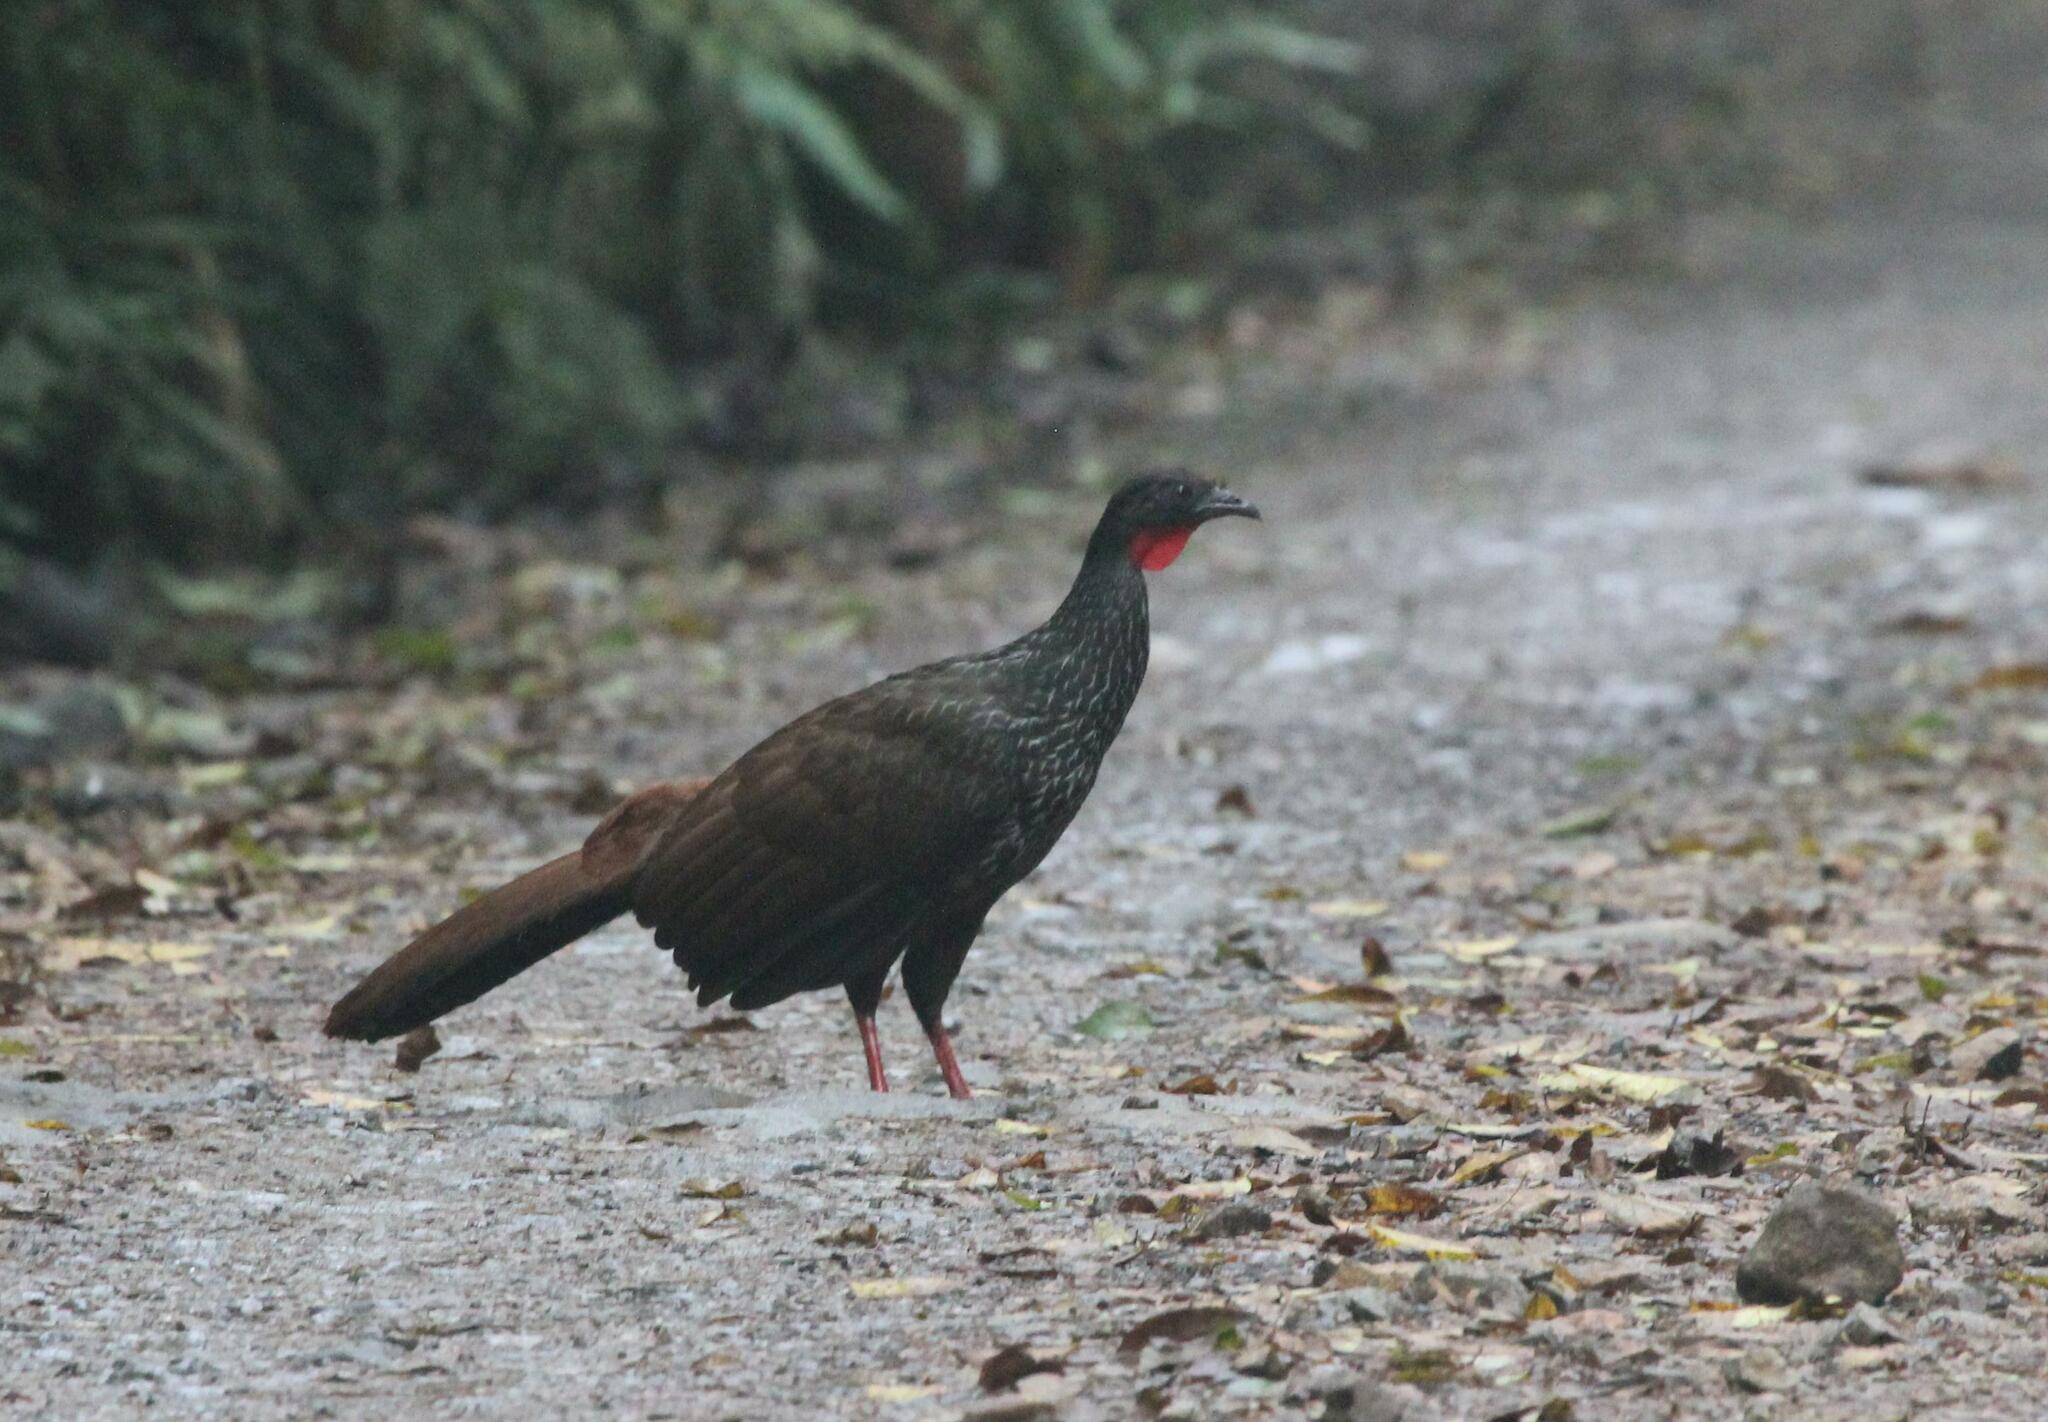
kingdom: Animalia
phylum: Chordata
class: Aves
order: Galliformes
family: Cracidae
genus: Penelope
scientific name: Penelope perspicax
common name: Cauca guan
